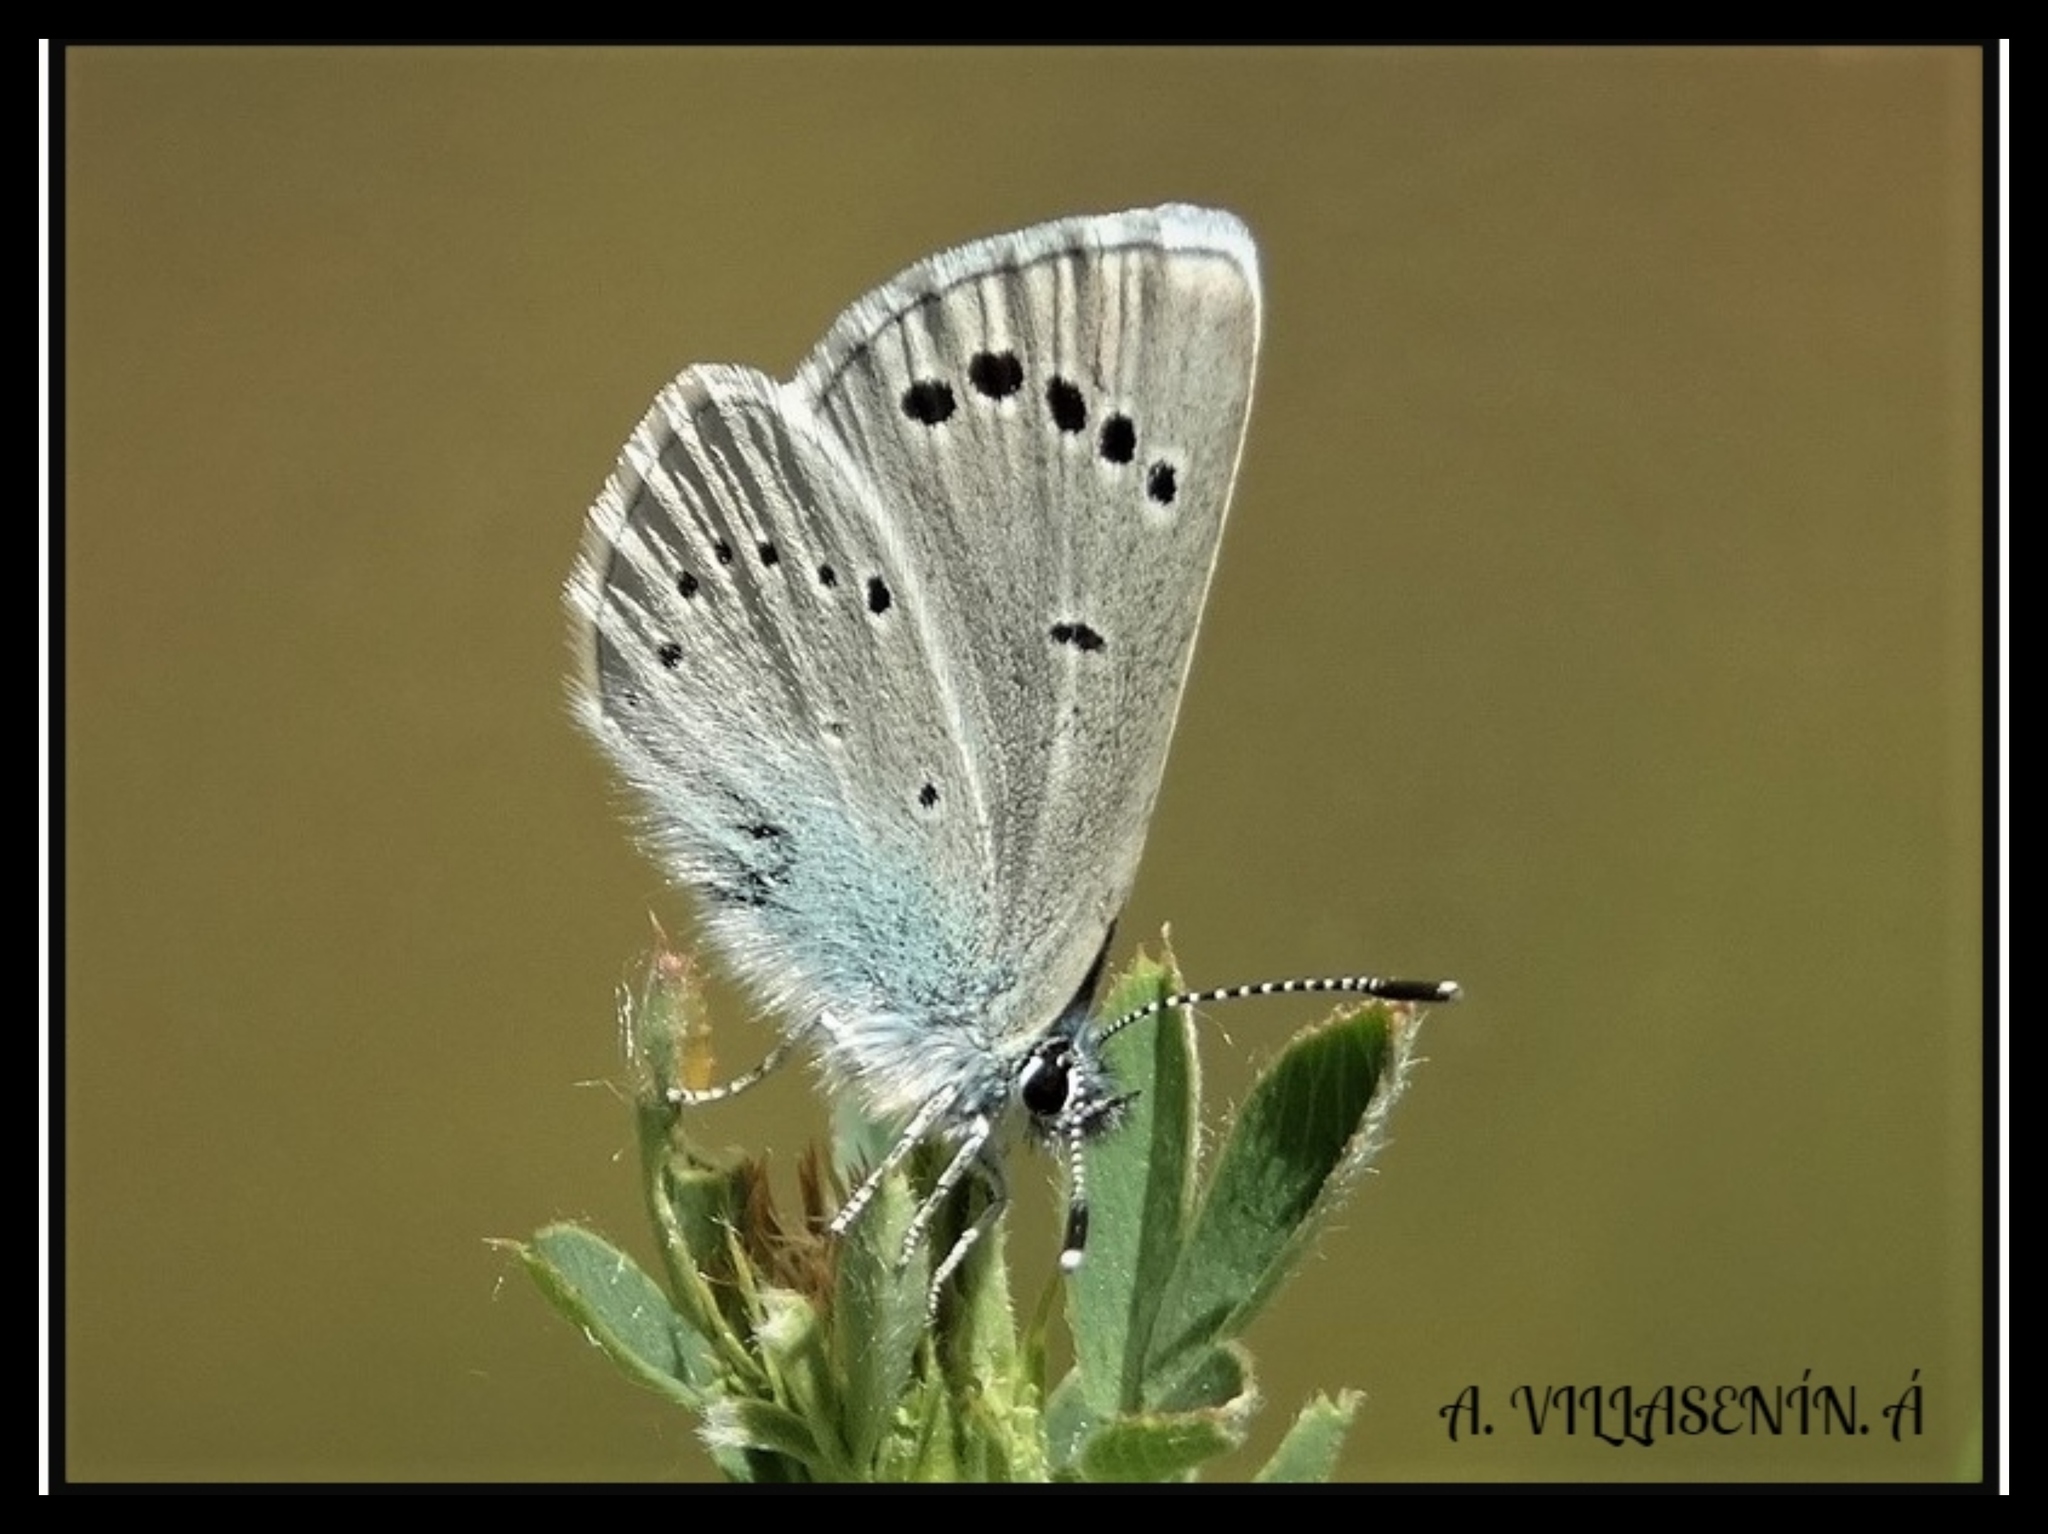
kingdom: Animalia
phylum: Arthropoda
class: Insecta
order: Lepidoptera
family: Lycaenidae
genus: Glaucopsyche
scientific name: Glaucopsyche alexis
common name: Green-underside blue
